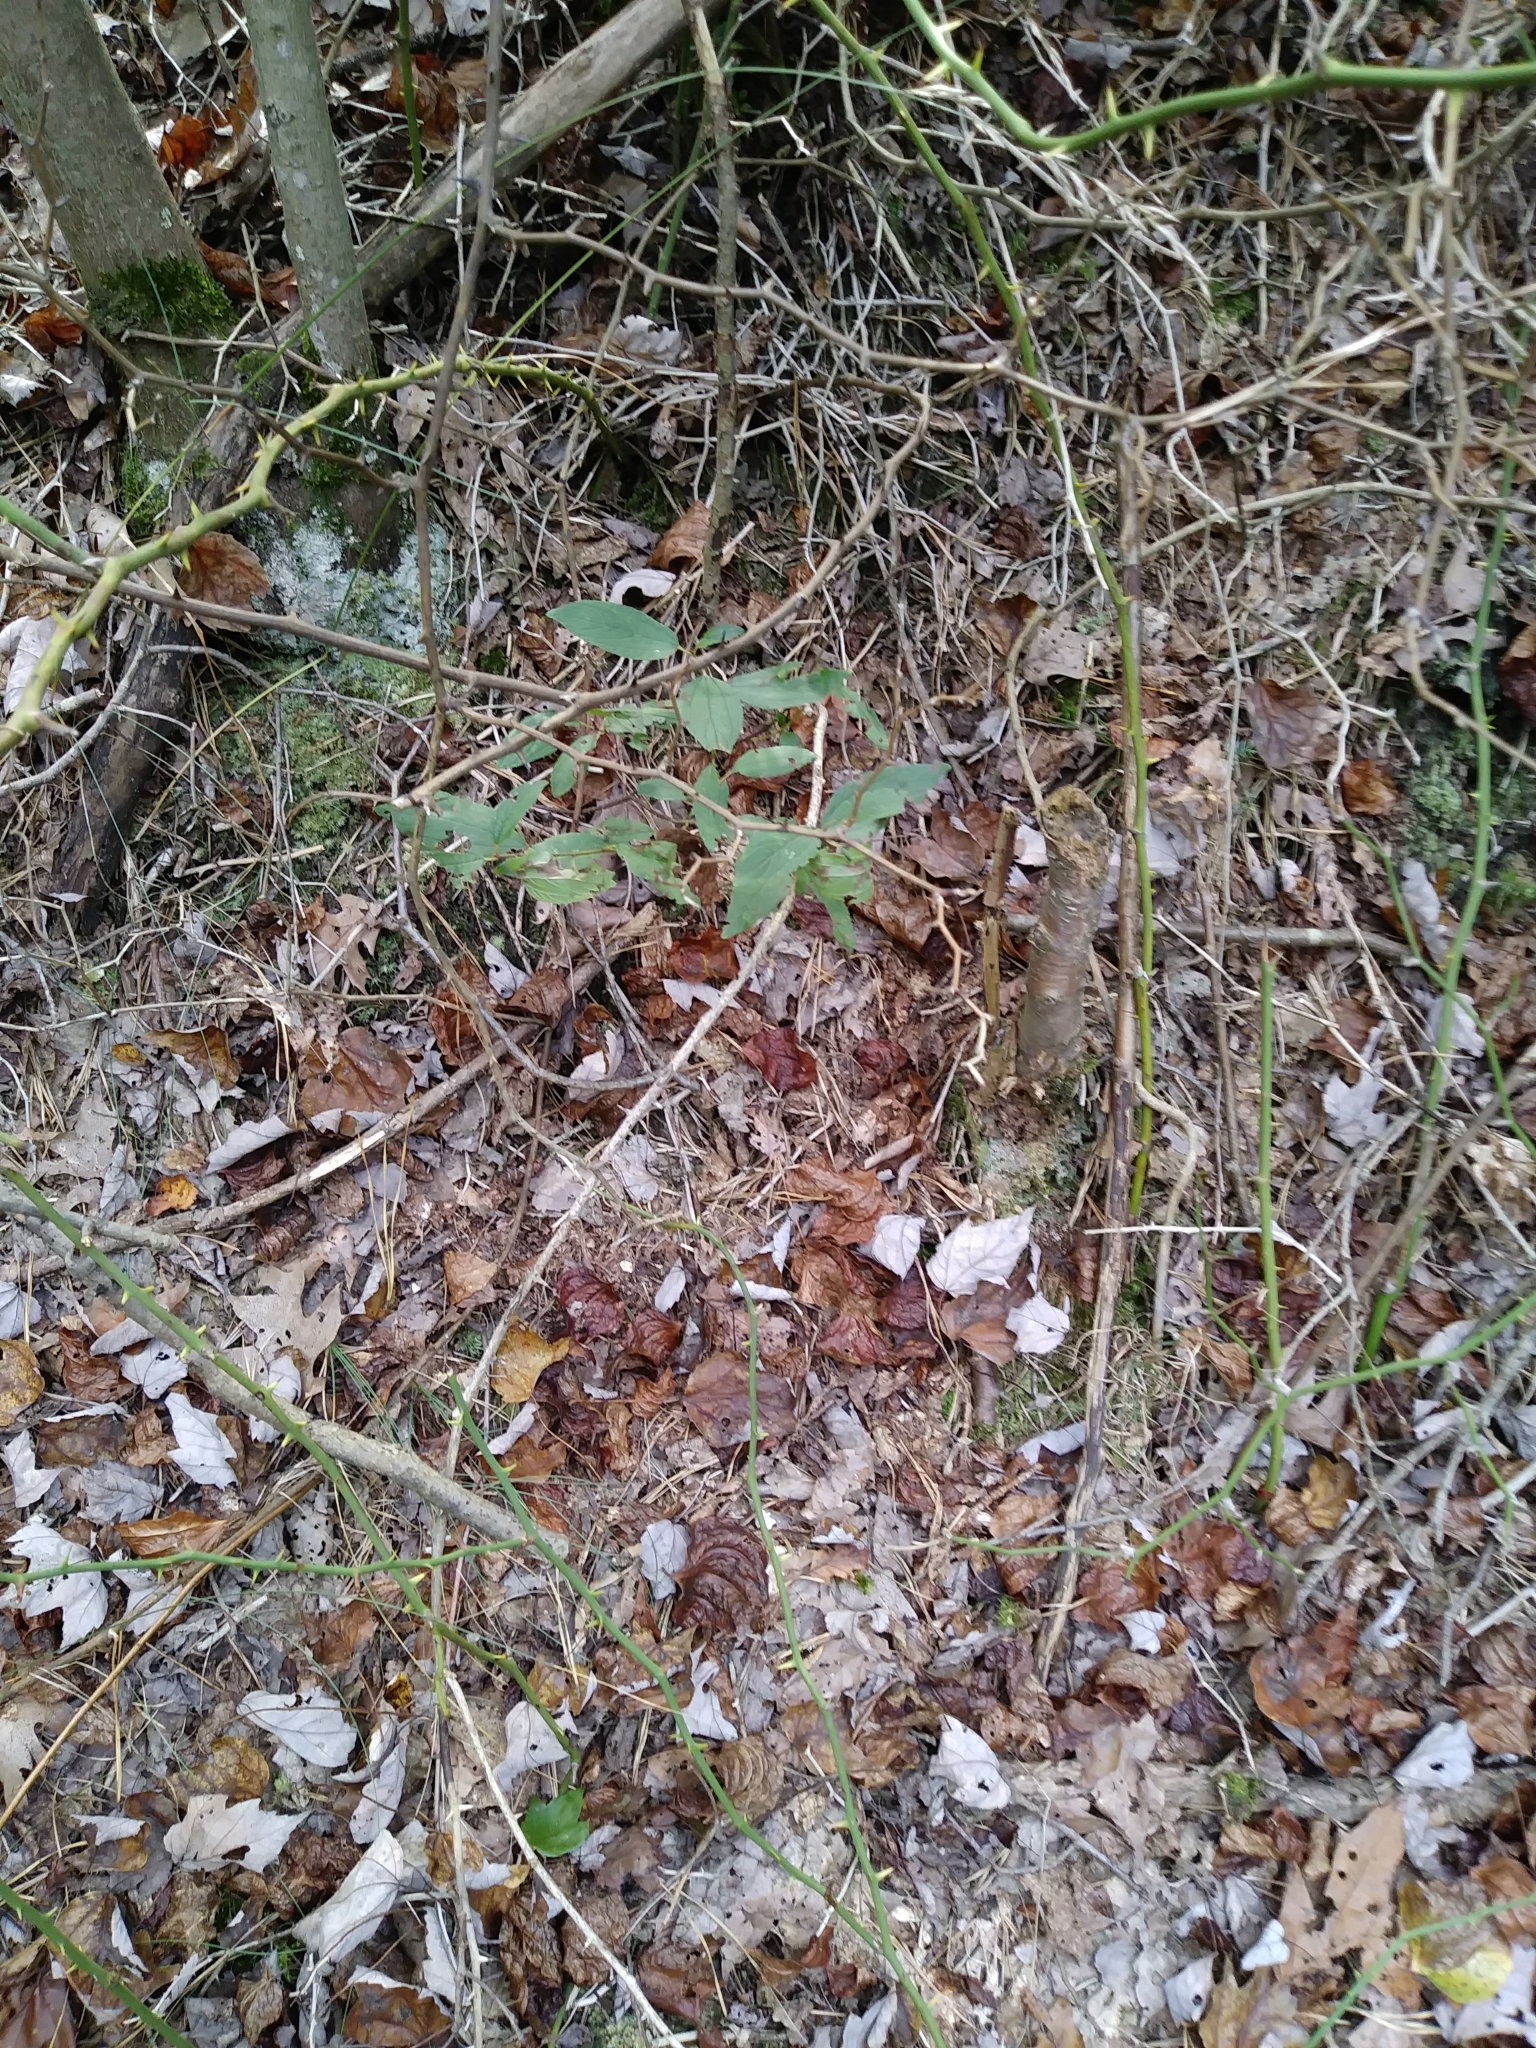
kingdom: Plantae
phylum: Tracheophyta
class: Magnoliopsida
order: Rosales
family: Rhamnaceae
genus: Ceanothus
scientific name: Ceanothus americanus
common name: Redroot
